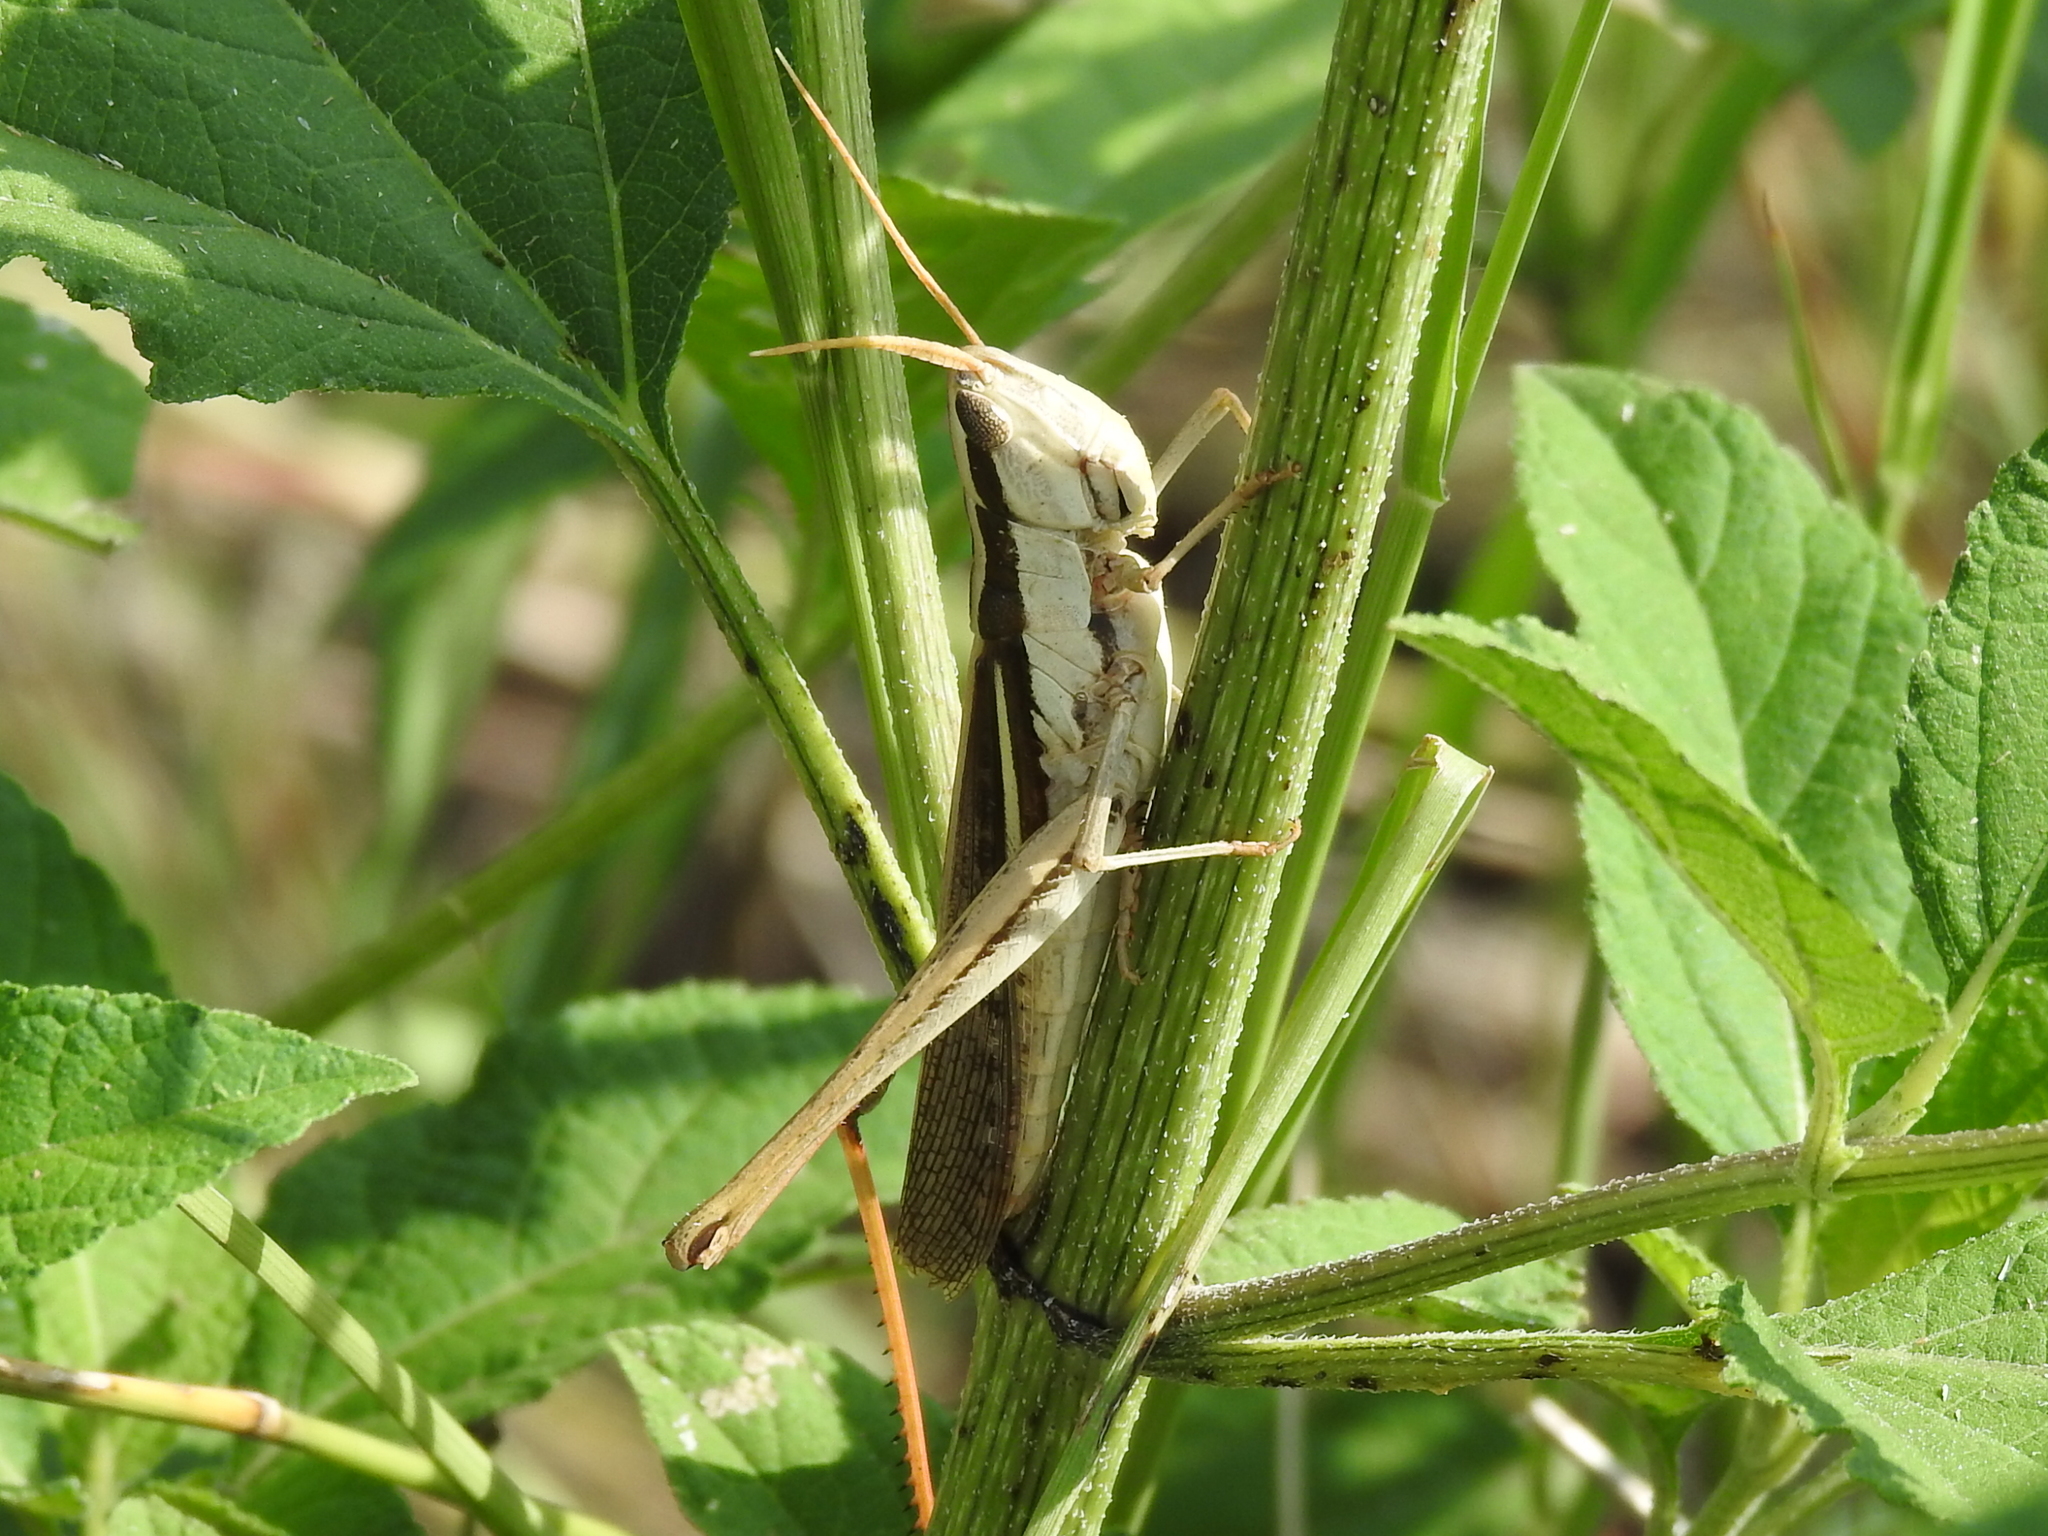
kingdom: Animalia
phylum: Arthropoda
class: Insecta
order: Orthoptera
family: Acrididae
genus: Mermiria
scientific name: Mermiria bivittata
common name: Two-striped mermiria grasshopper
